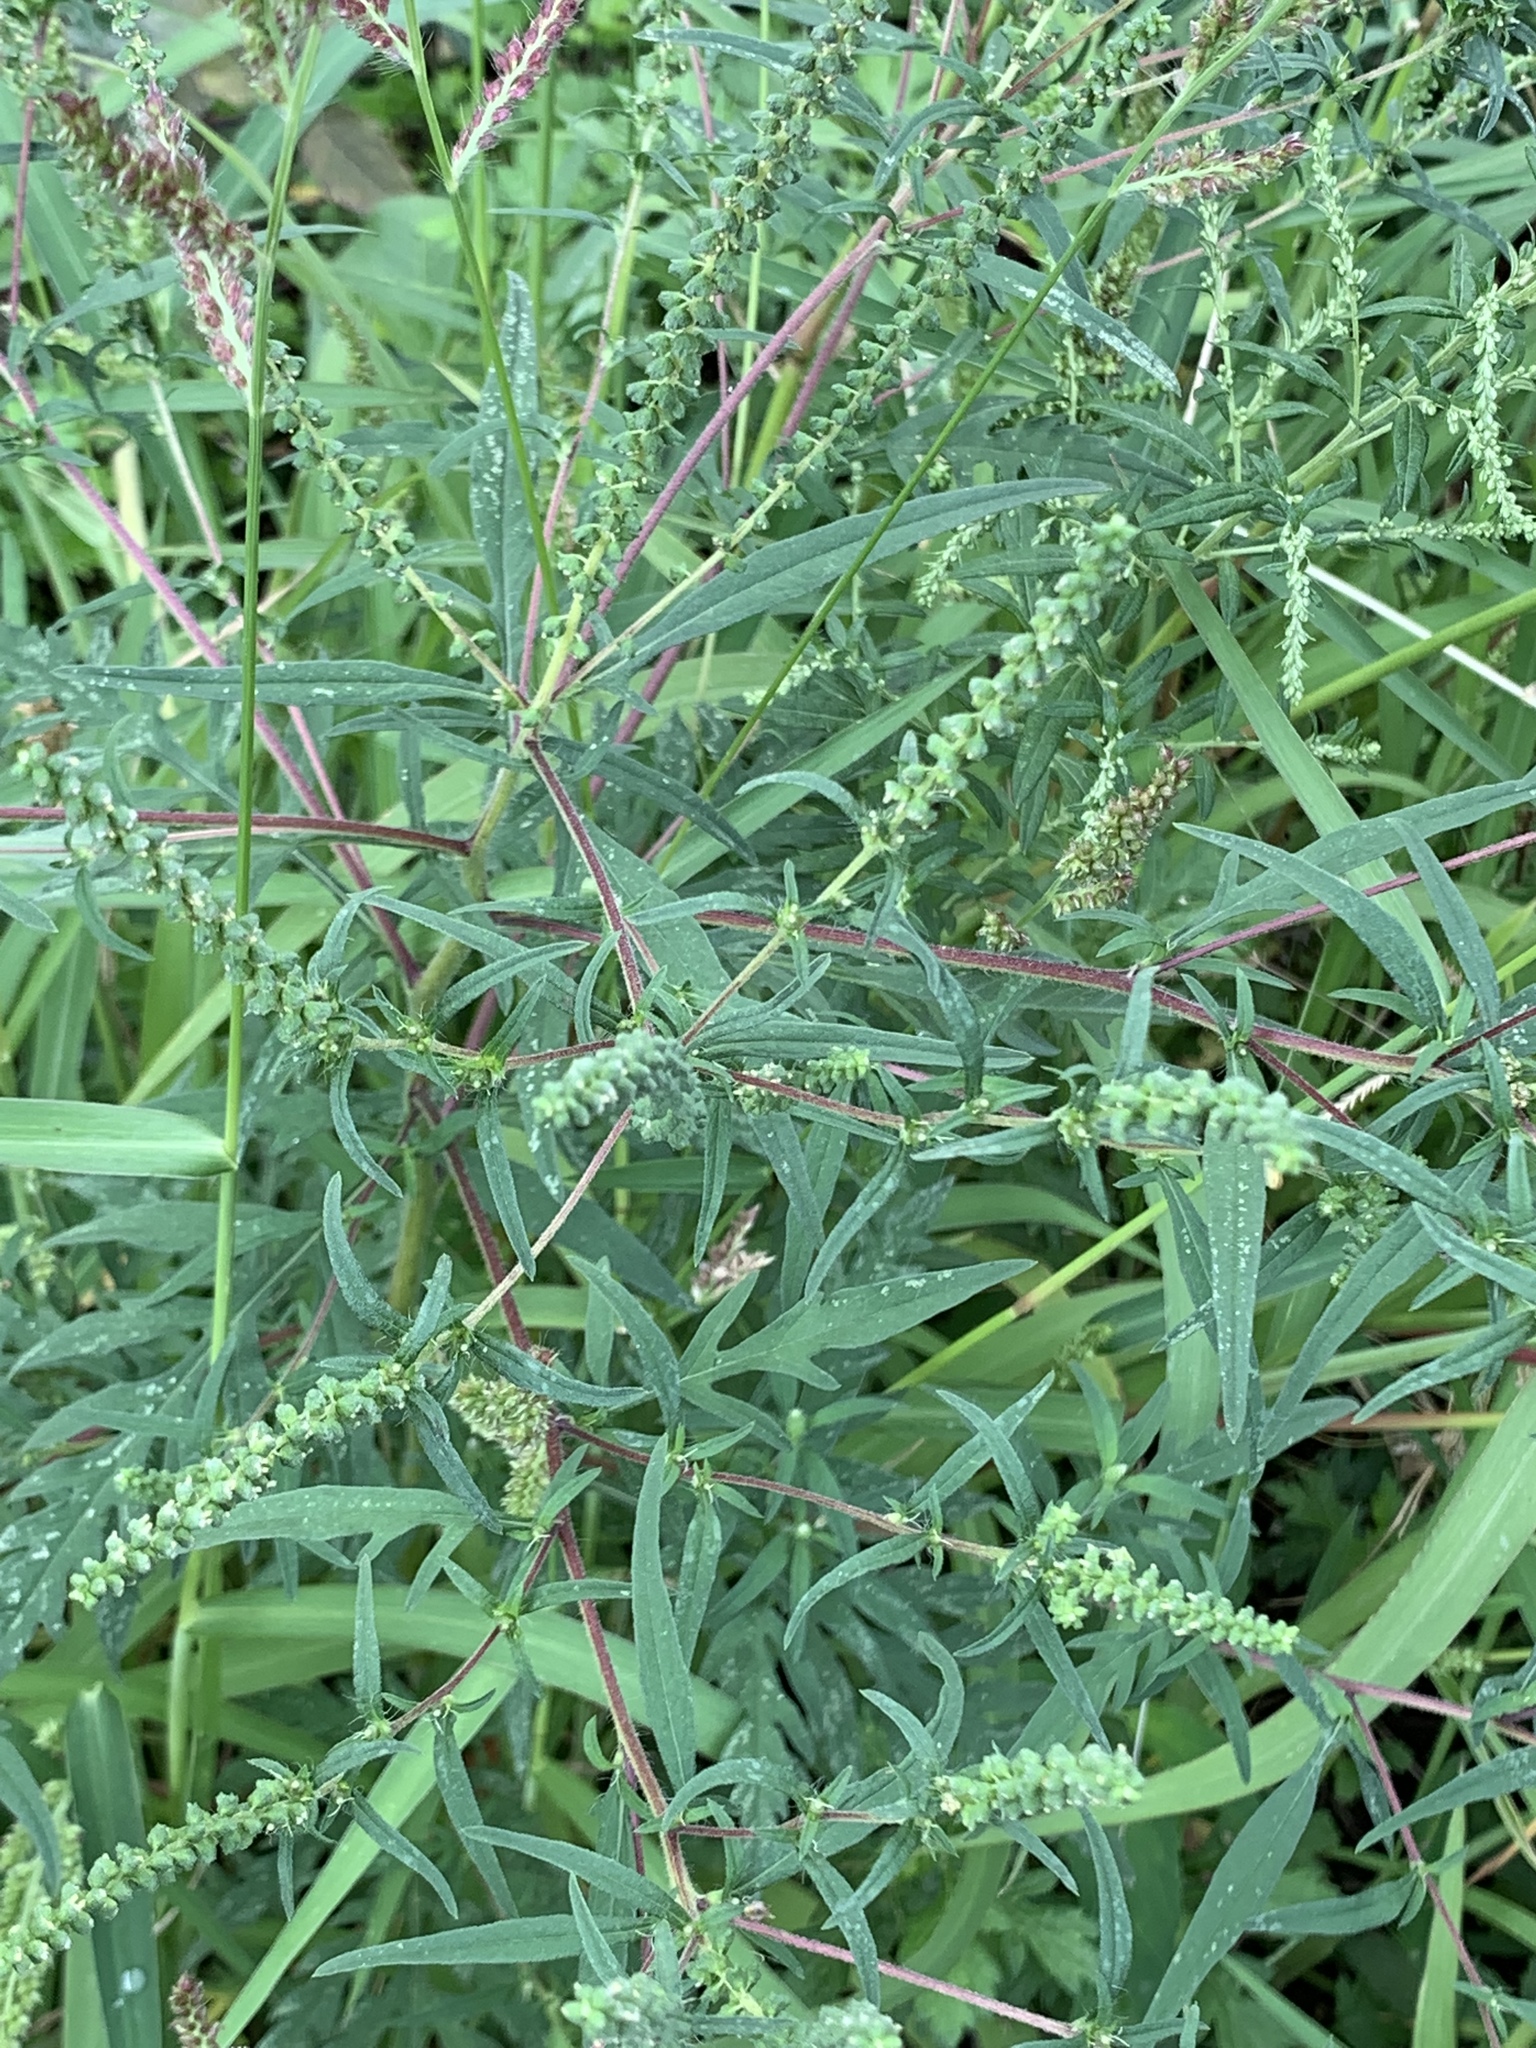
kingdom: Plantae
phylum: Tracheophyta
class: Magnoliopsida
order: Asterales
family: Asteraceae
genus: Ambrosia
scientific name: Ambrosia artemisiifolia
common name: Annual ragweed
